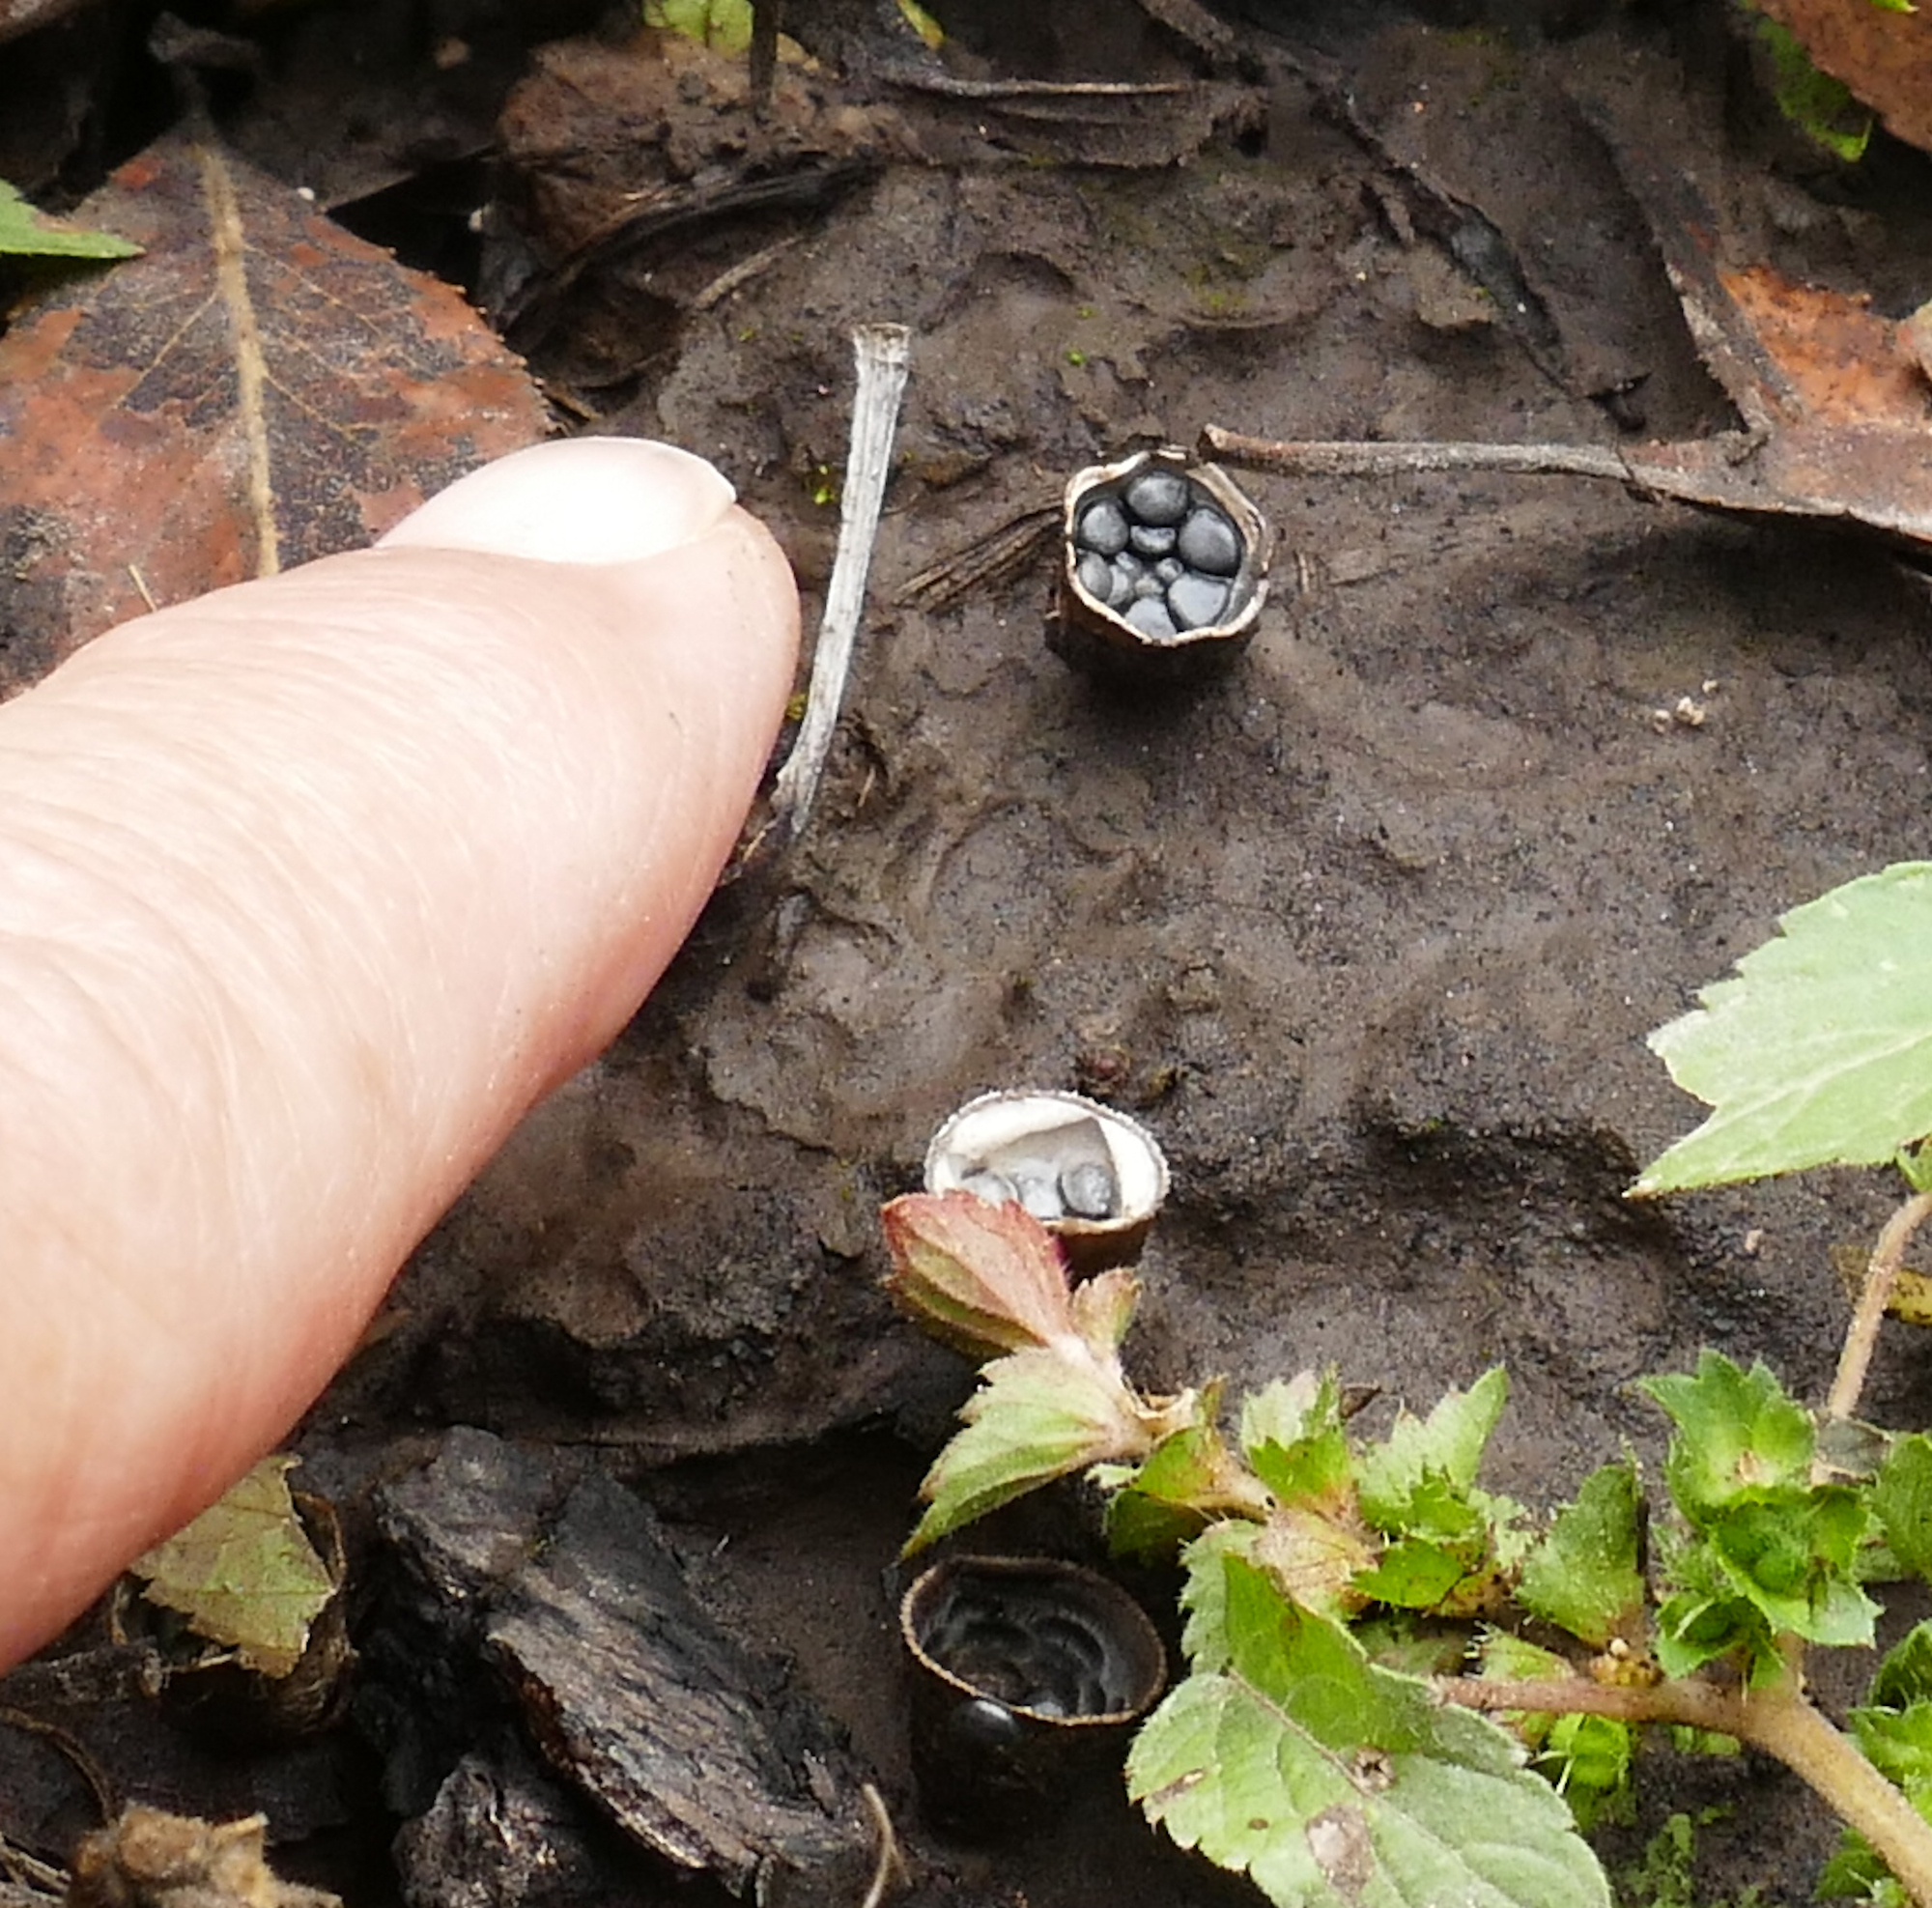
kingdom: Fungi
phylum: Basidiomycota
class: Agaricomycetes
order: Agaricales
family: Agaricaceae
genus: Cyathus
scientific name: Cyathus stercoreus
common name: Dung bird's nest
